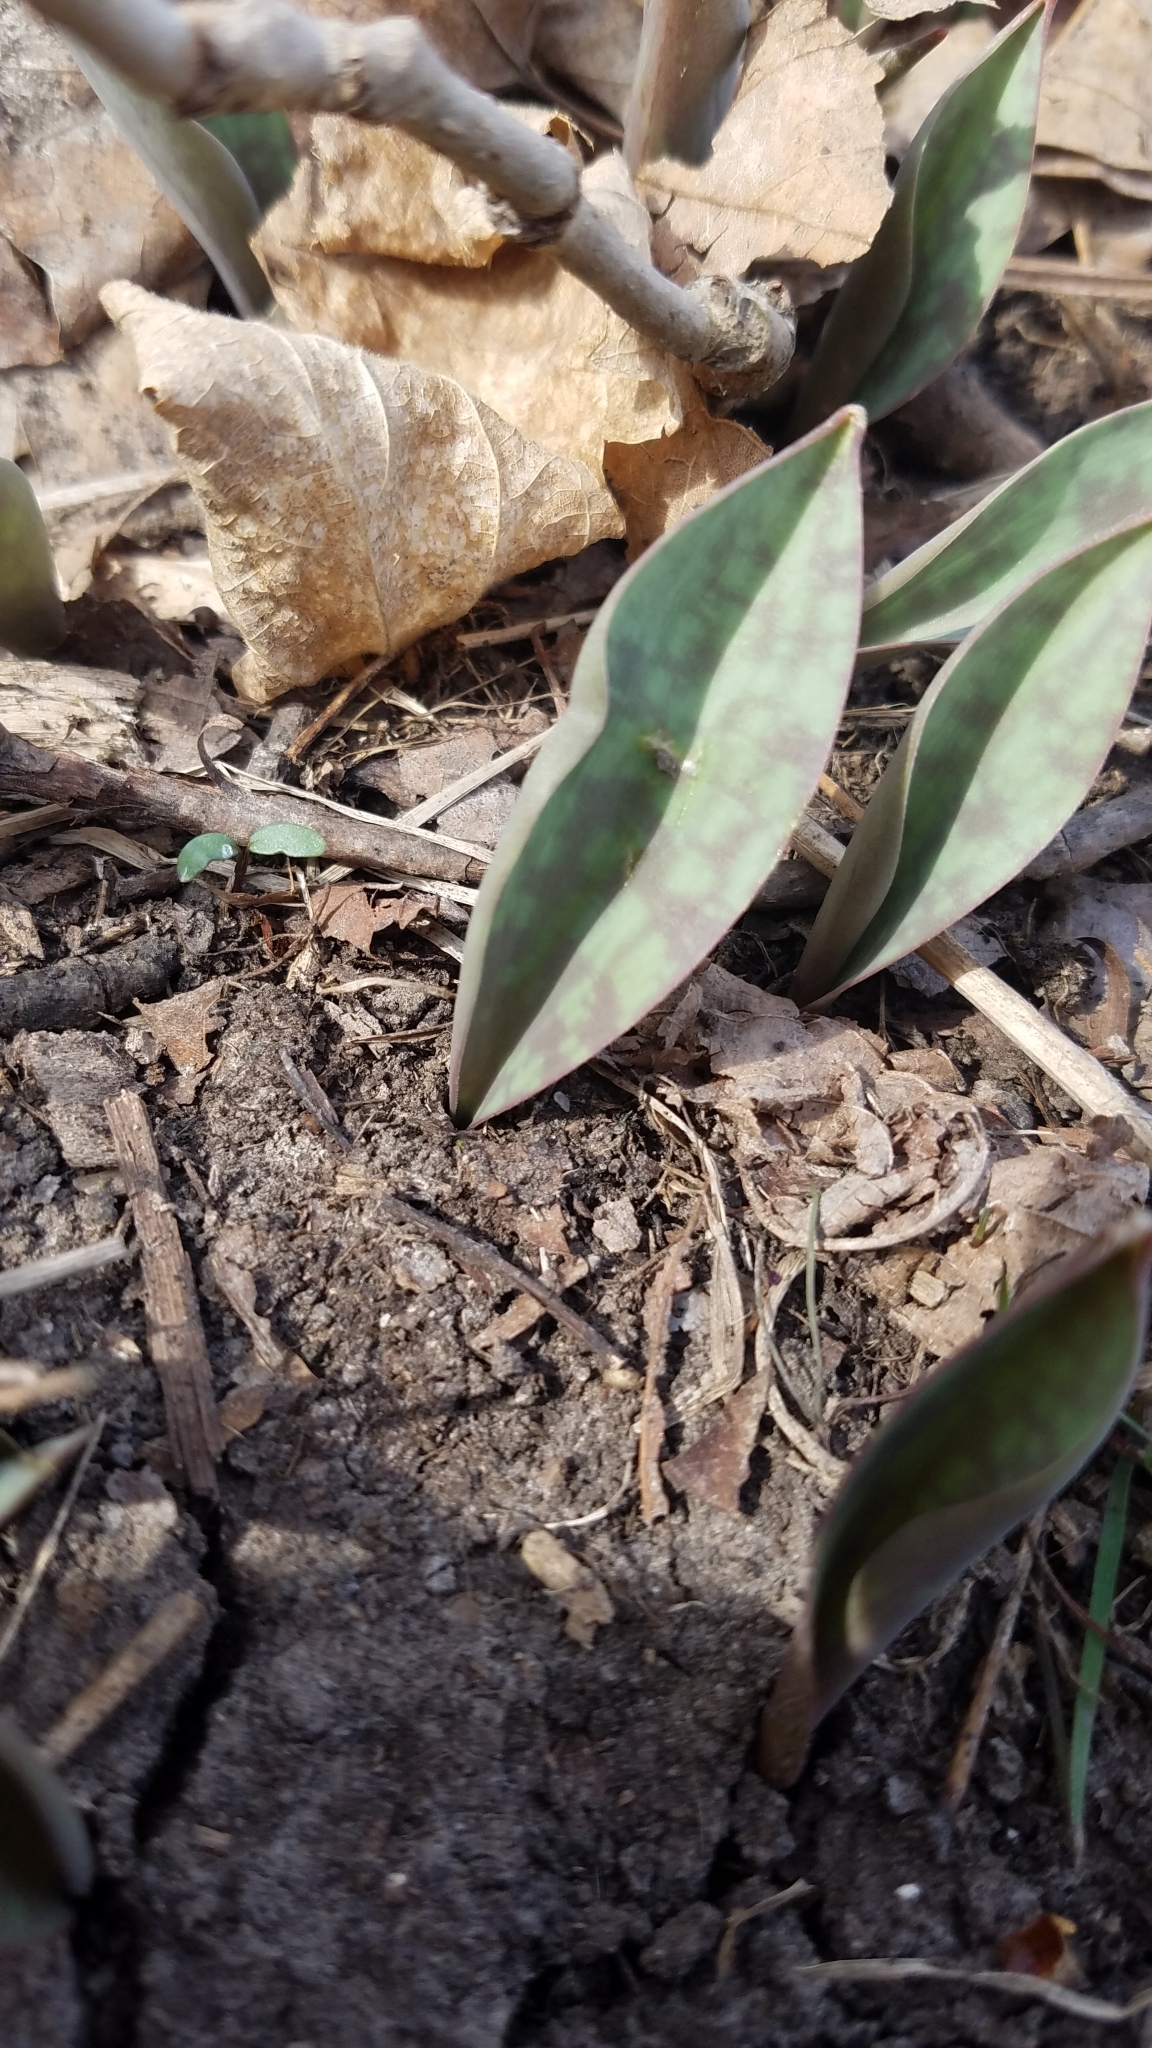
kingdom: Plantae
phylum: Tracheophyta
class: Liliopsida
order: Liliales
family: Liliaceae
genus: Erythronium
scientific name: Erythronium
